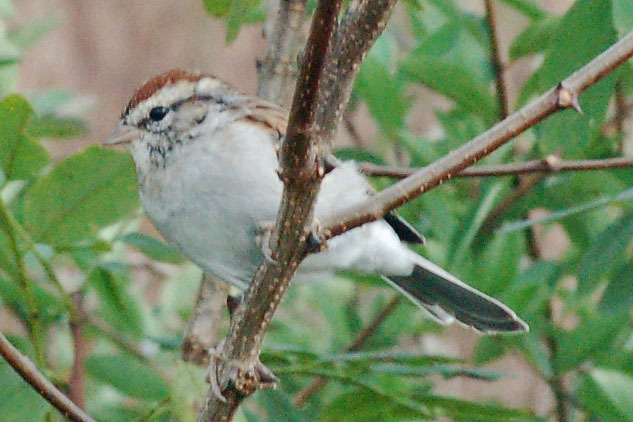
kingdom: Animalia
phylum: Chordata
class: Aves
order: Passeriformes
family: Passerellidae
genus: Spizella
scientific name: Spizella passerina
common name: Chipping sparrow
